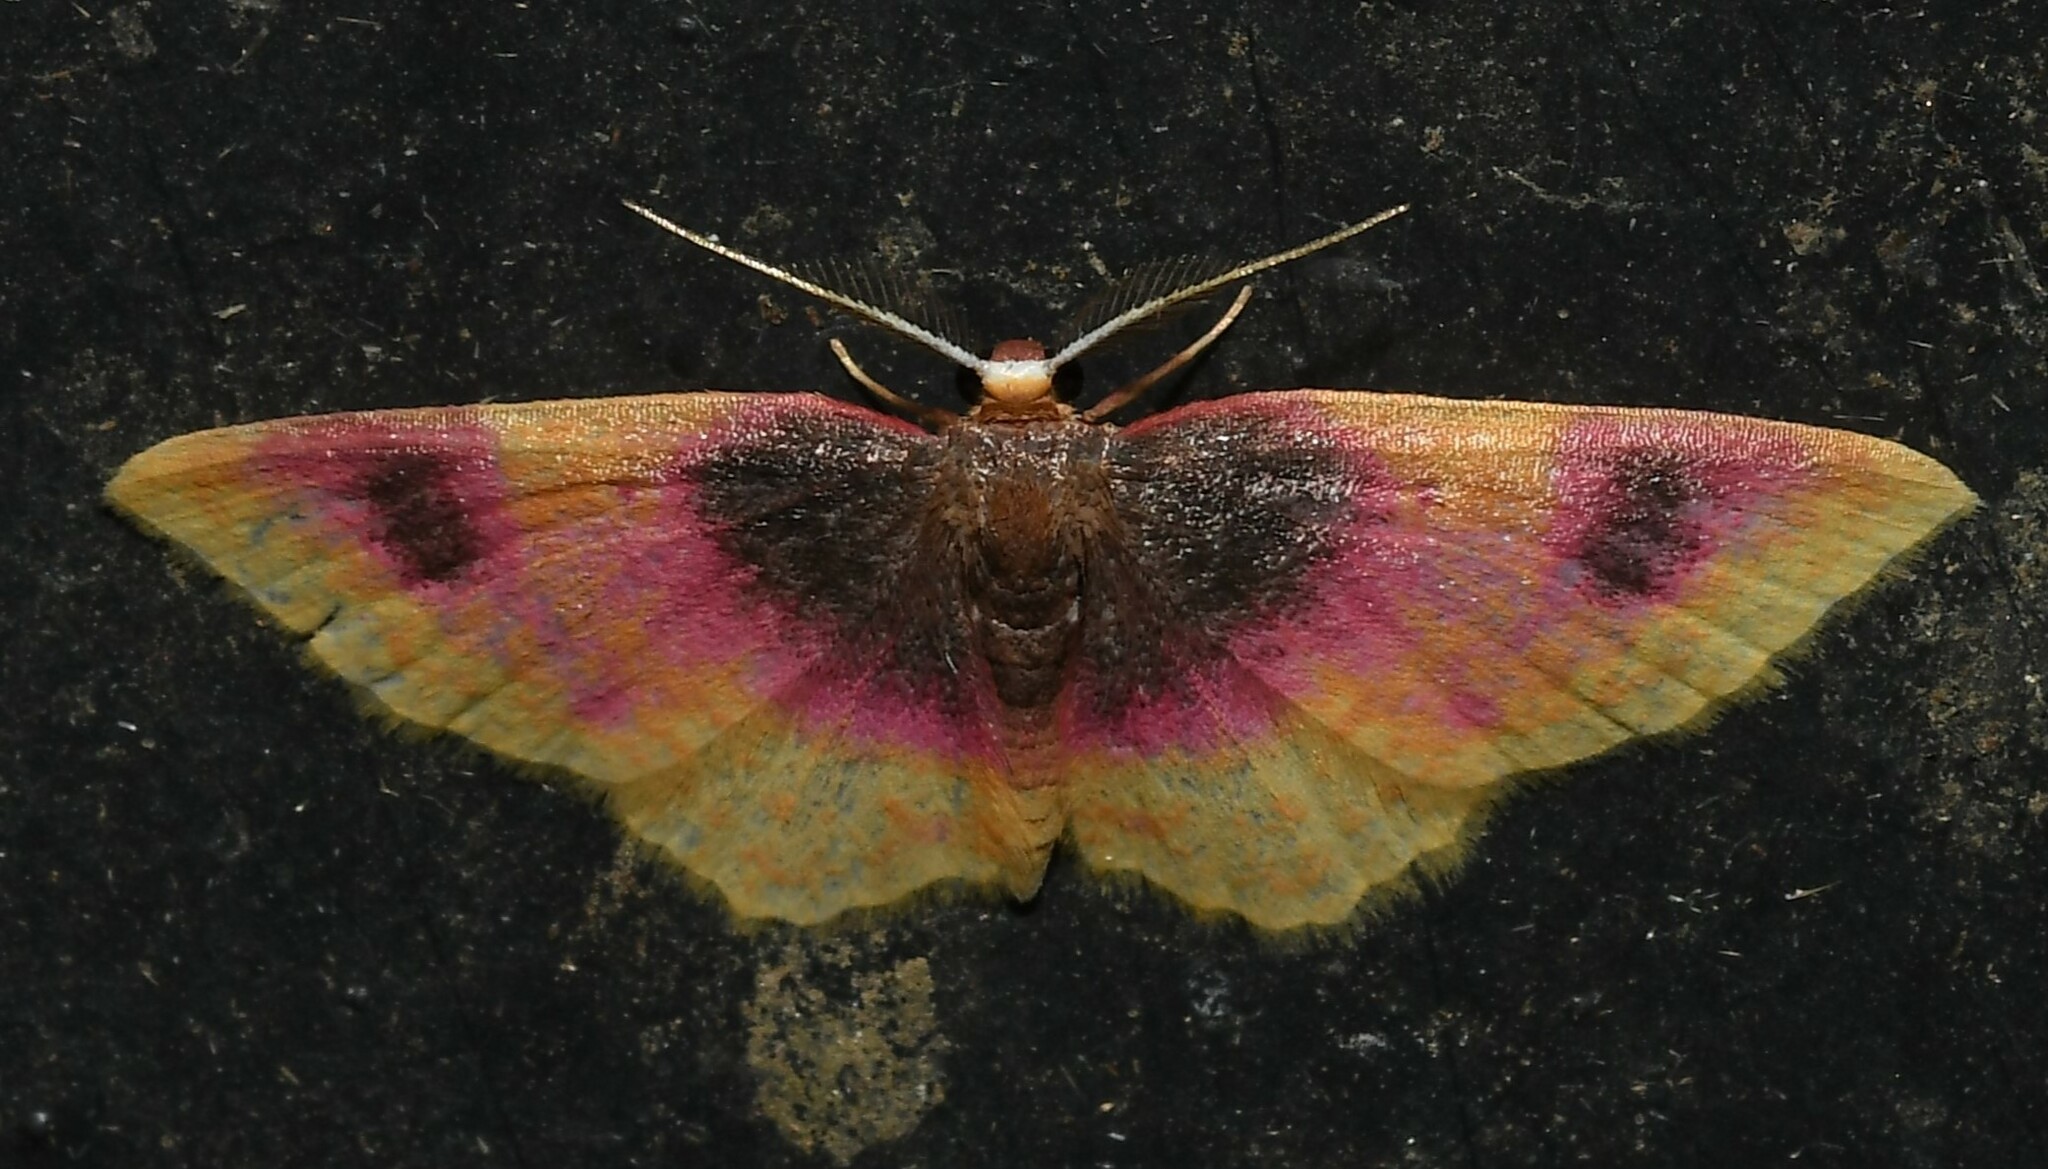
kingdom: Animalia
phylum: Arthropoda
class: Insecta
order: Lepidoptera
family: Geometridae
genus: Eois
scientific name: Eois inflammata
